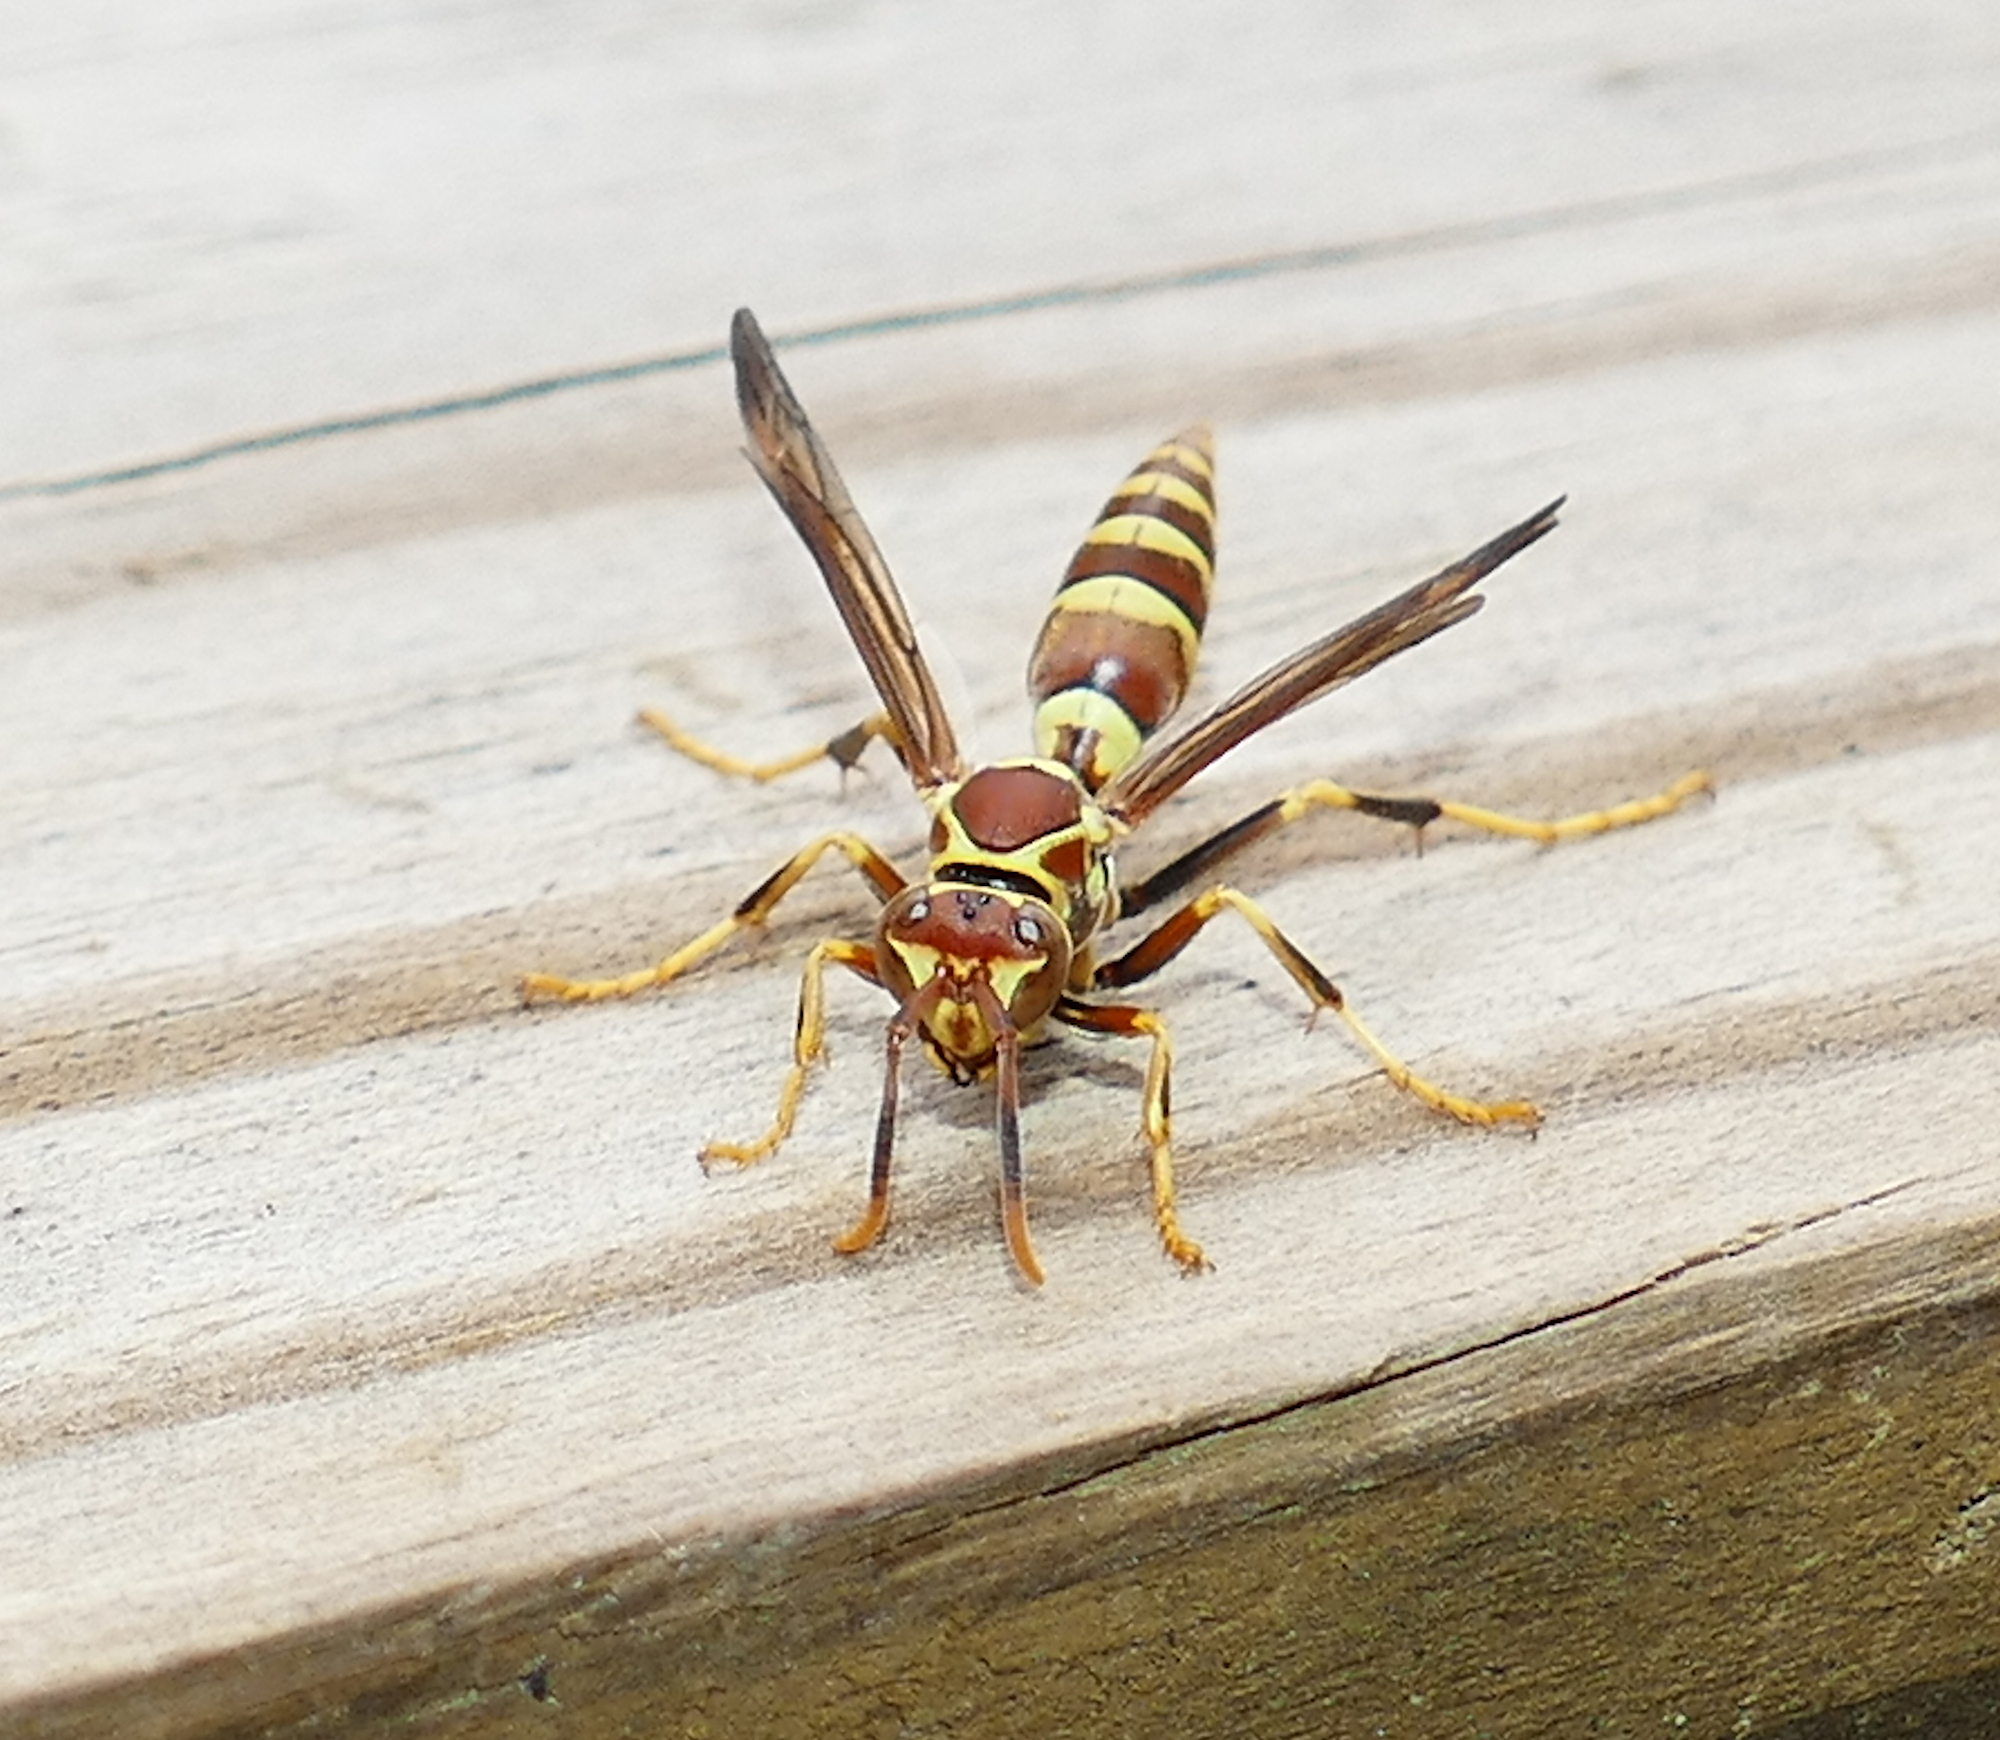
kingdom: Animalia
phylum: Arthropoda
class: Insecta
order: Hymenoptera
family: Eumenidae
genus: Polistes
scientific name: Polistes exclamans
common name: Paper wasp
